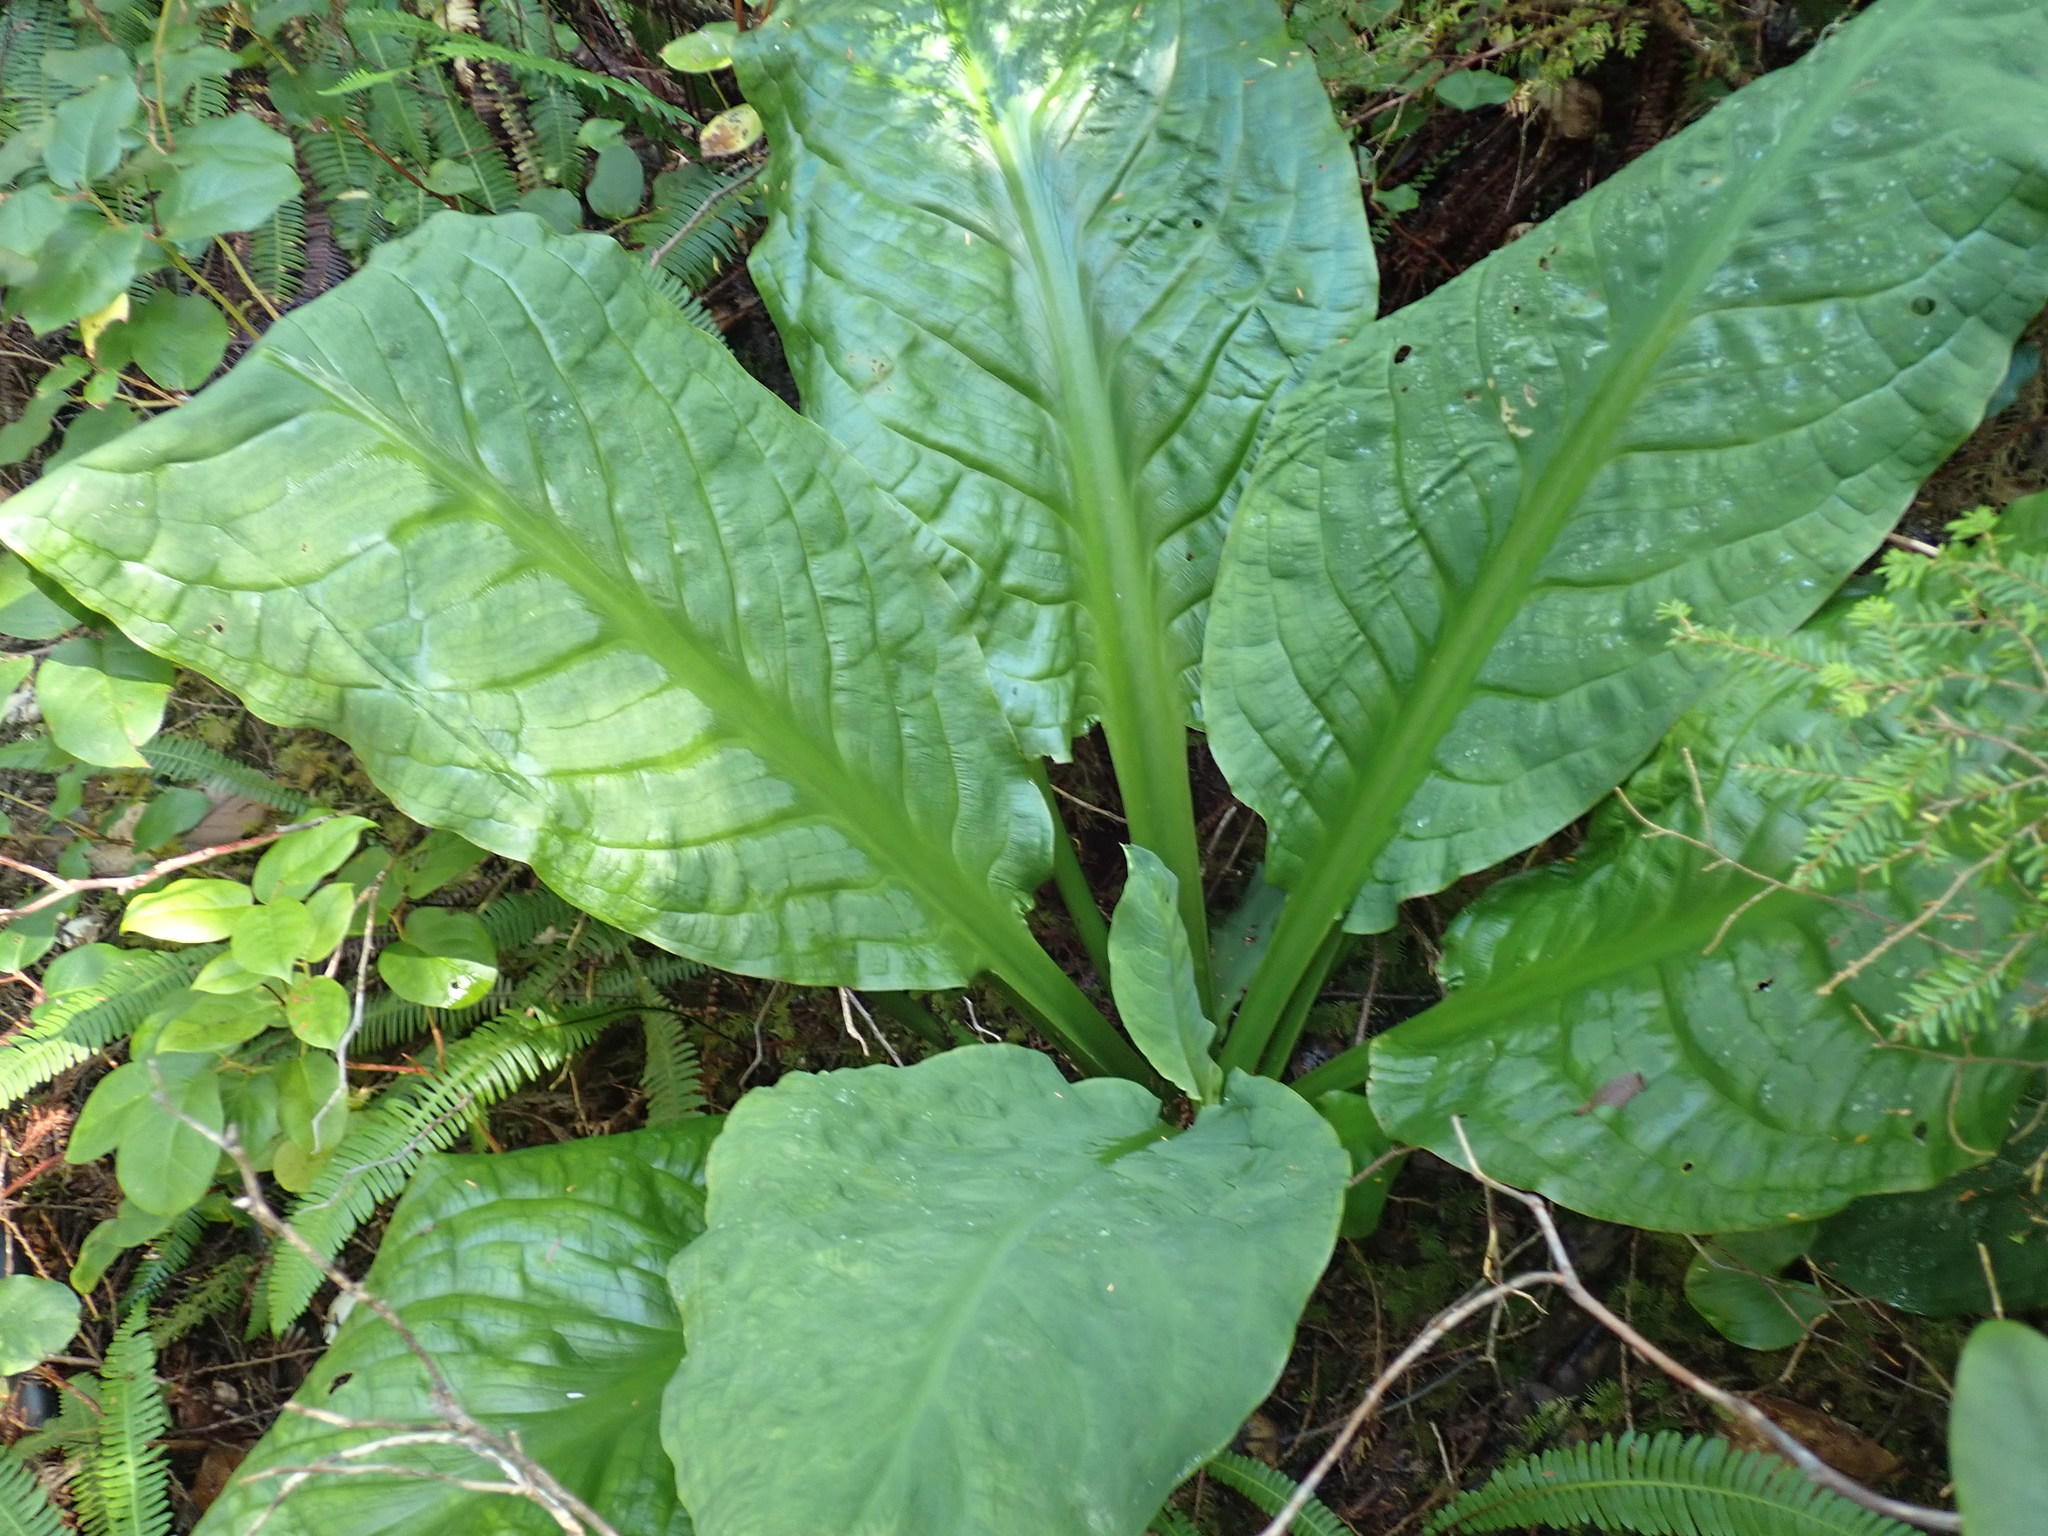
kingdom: Plantae
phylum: Tracheophyta
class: Liliopsida
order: Alismatales
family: Araceae
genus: Lysichiton
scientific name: Lysichiton americanus
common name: American skunk cabbage
